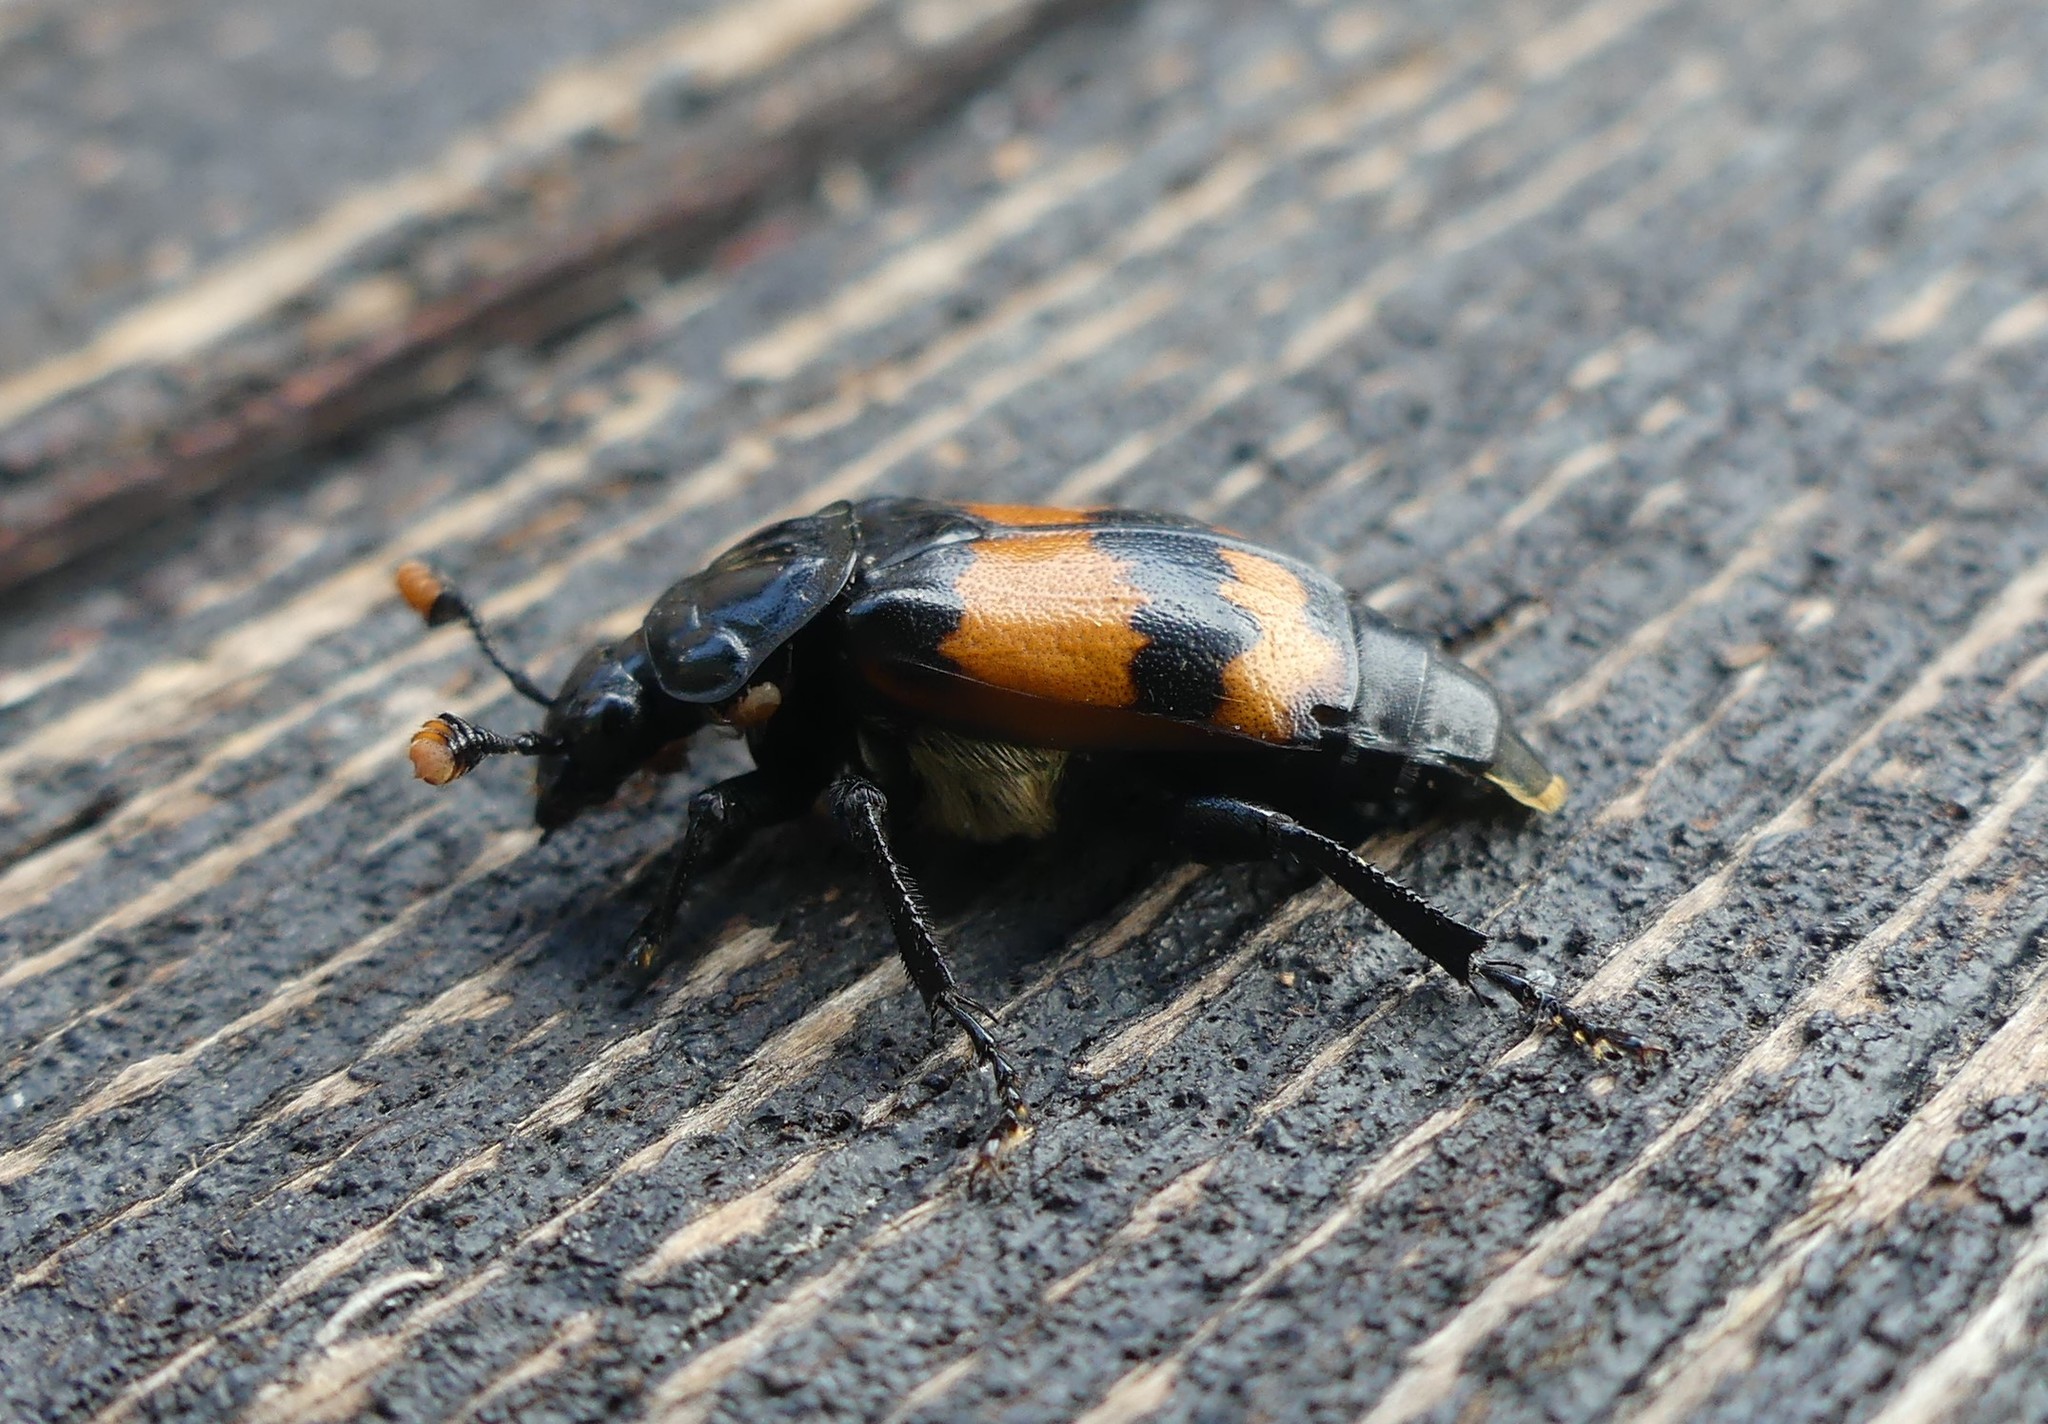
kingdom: Animalia
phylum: Arthropoda
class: Arachnida
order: Mesostigmata
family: Parasitidae
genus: Poecilochirus
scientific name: Poecilochirus
